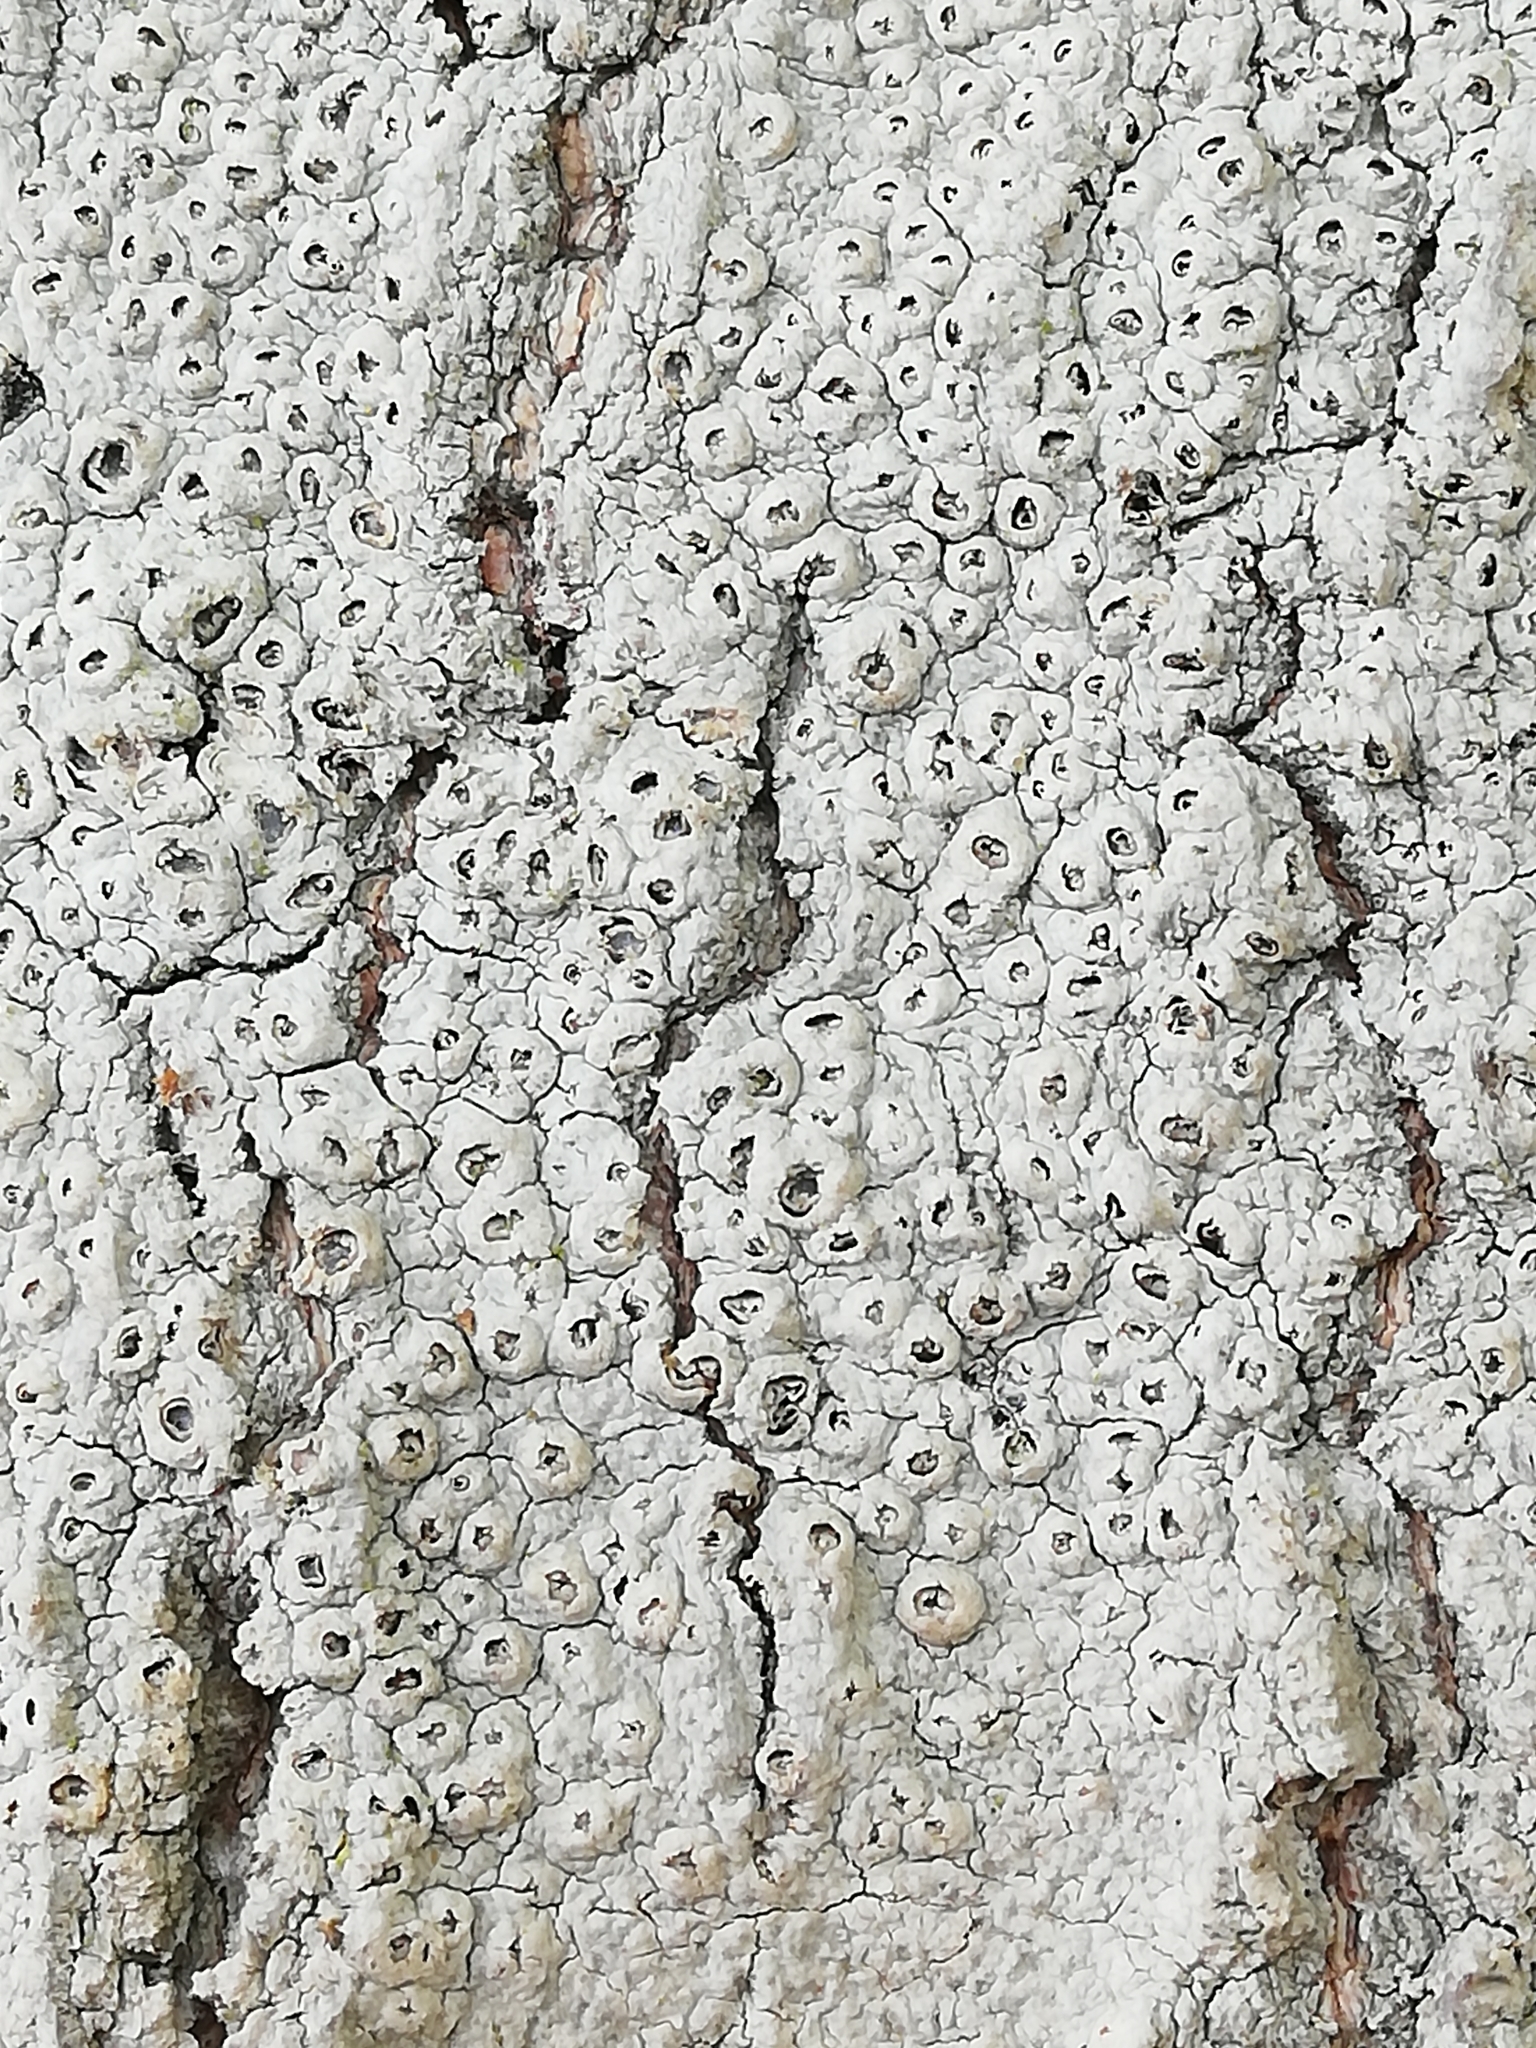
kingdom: Fungi
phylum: Ascomycota
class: Lecanoromycetes
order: Ostropales
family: Graphidaceae
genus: Thelotrema
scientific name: Thelotrema lepadinum
